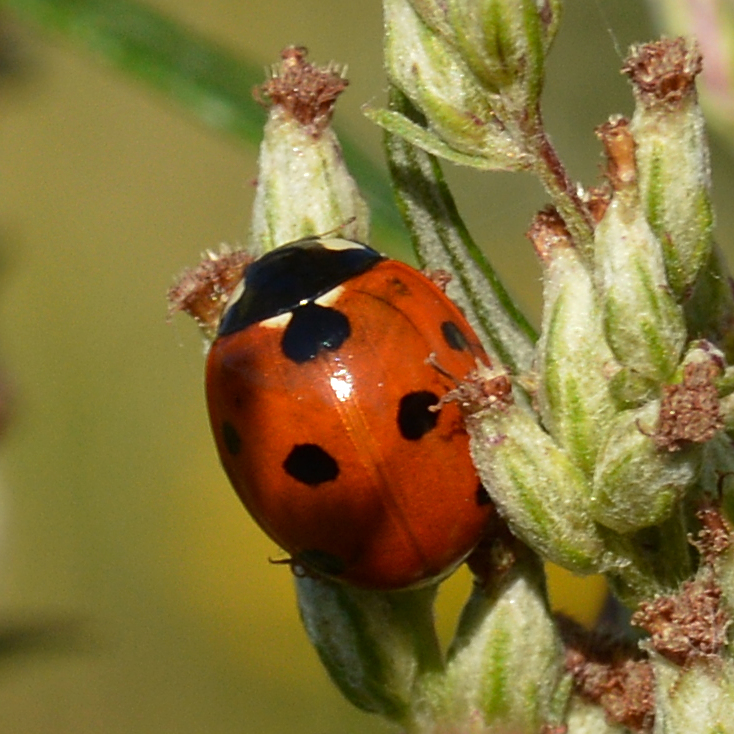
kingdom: Animalia
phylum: Arthropoda
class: Insecta
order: Coleoptera
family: Coccinellidae
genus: Coccinella
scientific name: Coccinella septempunctata
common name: Sevenspotted lady beetle
